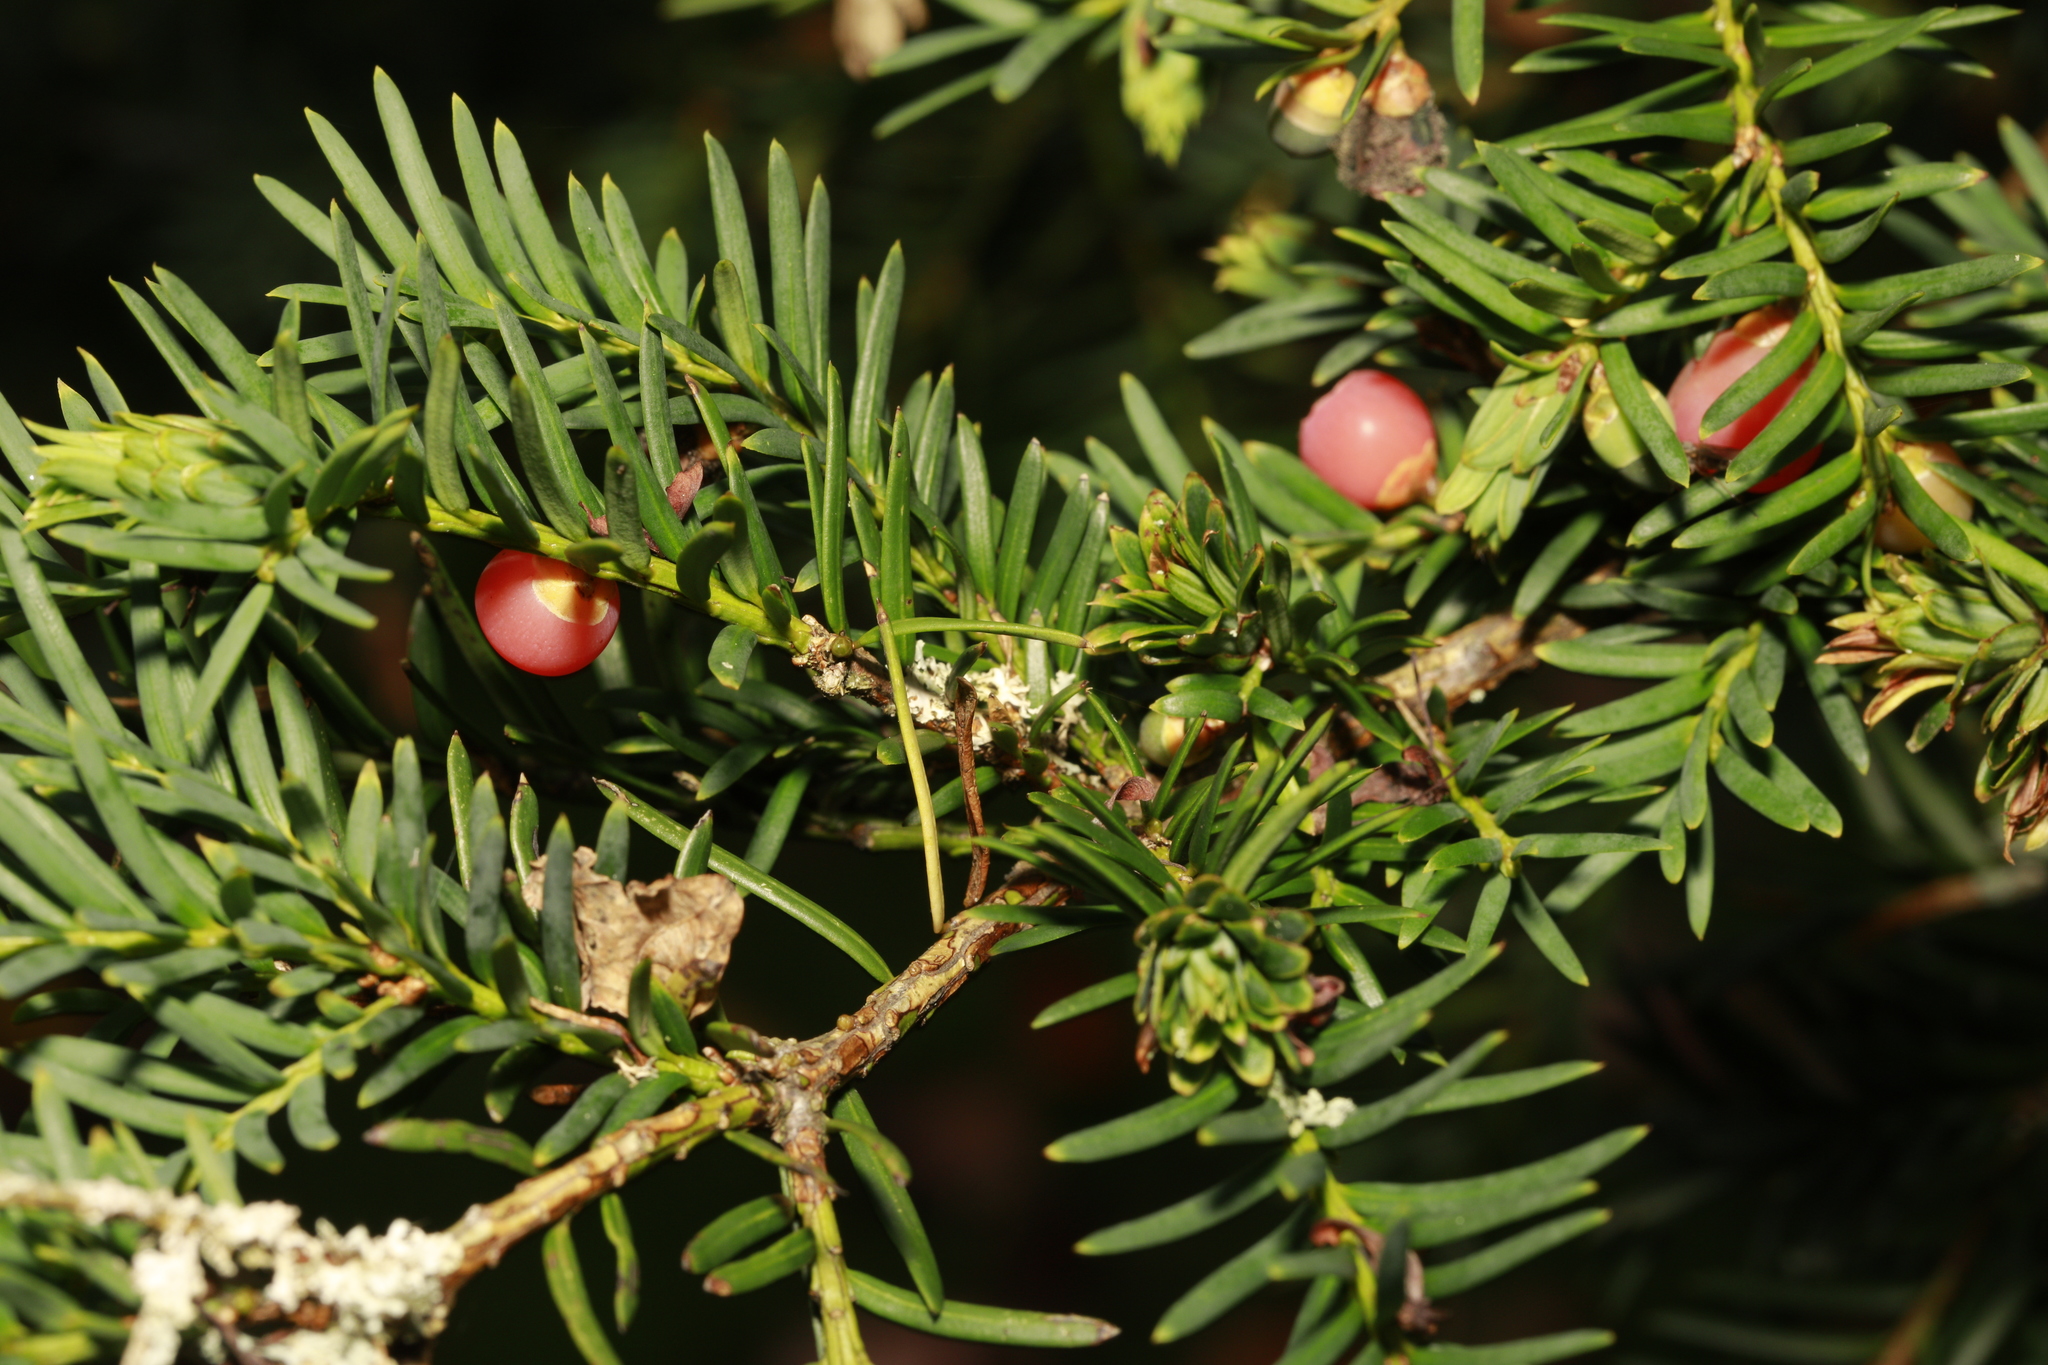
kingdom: Plantae
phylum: Tracheophyta
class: Pinopsida
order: Pinales
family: Taxaceae
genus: Taxus
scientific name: Taxus baccata
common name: Yew
